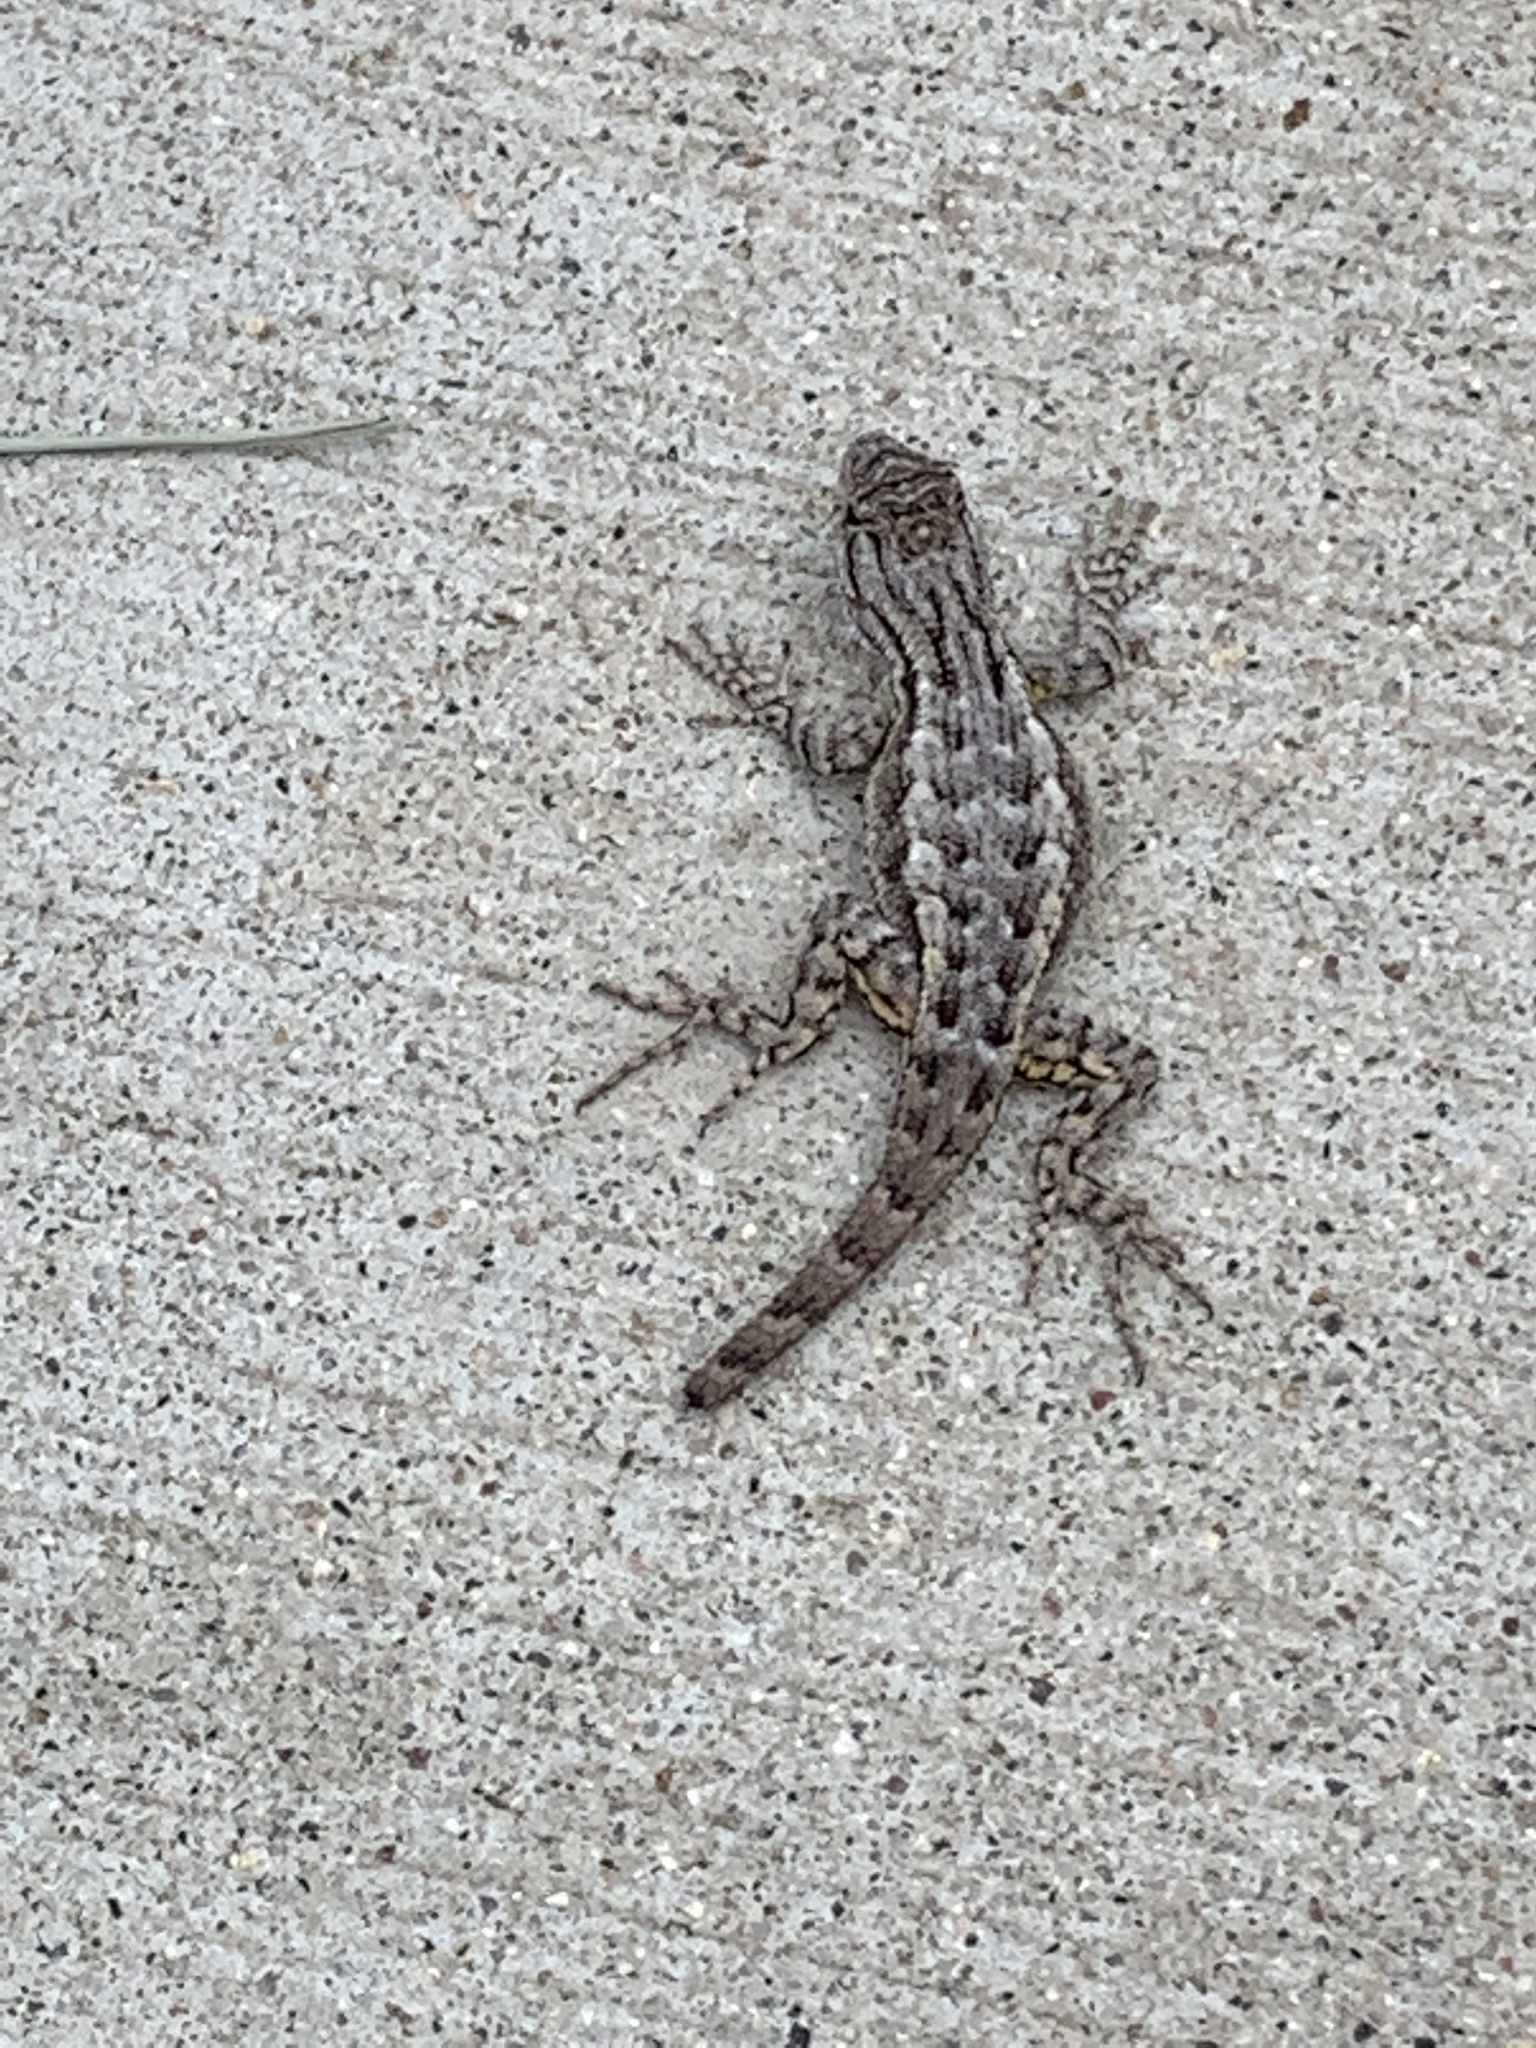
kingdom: Animalia
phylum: Chordata
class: Squamata
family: Phrynosomatidae
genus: Sceloporus
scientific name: Sceloporus occidentalis
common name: Western fence lizard
